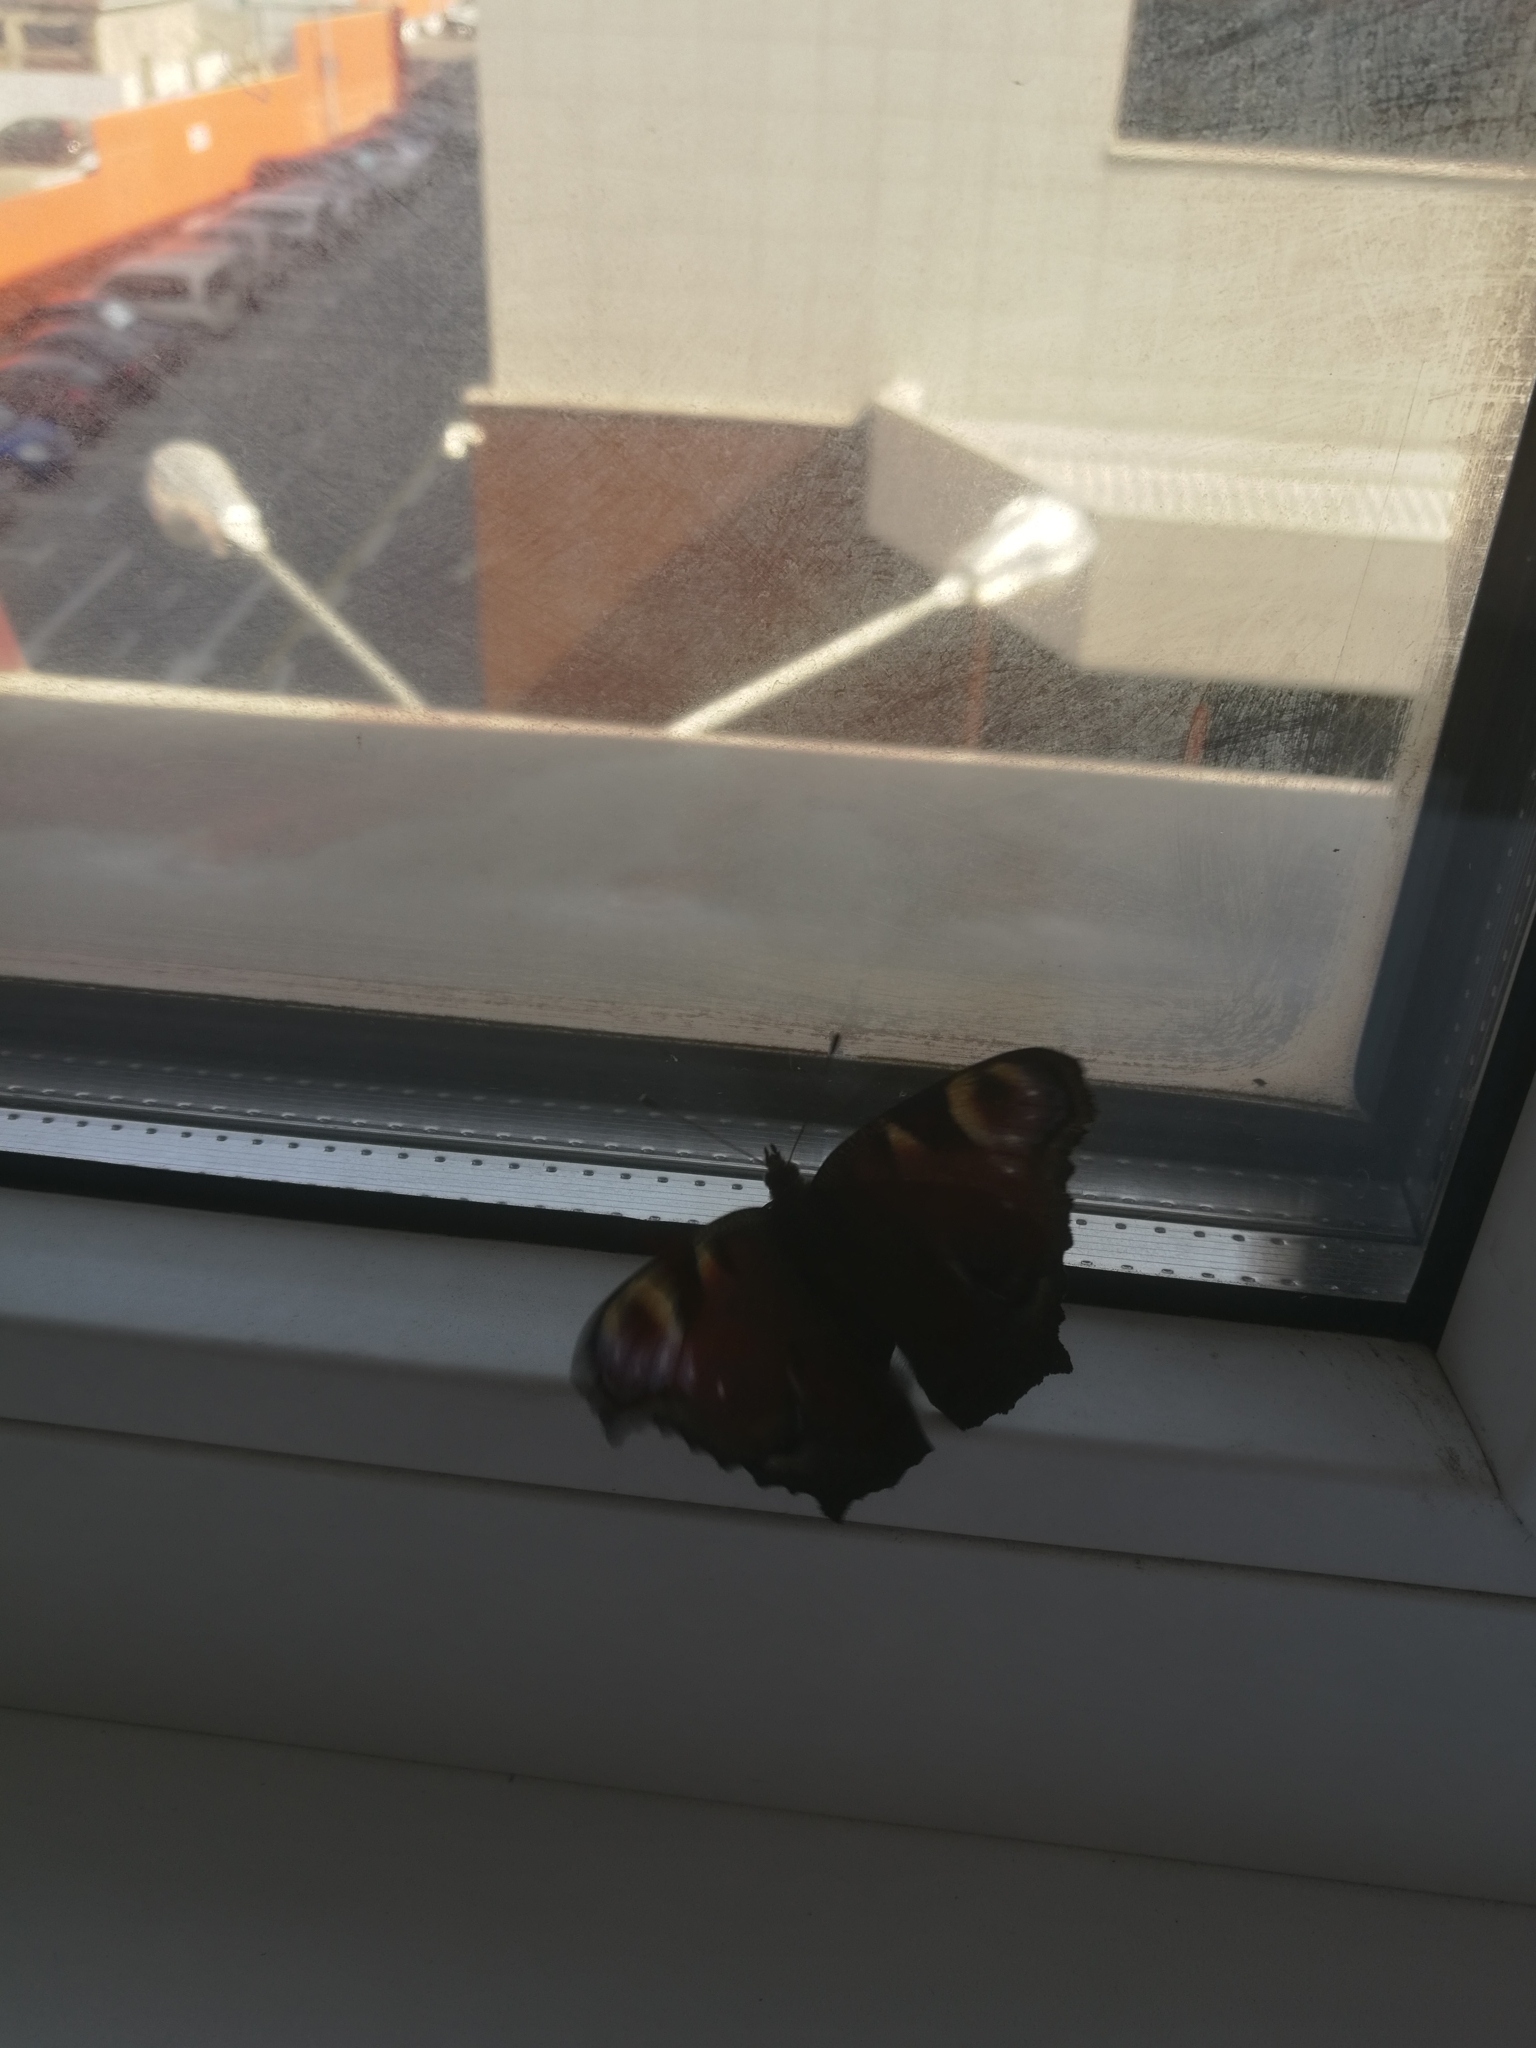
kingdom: Animalia
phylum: Arthropoda
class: Insecta
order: Lepidoptera
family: Nymphalidae
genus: Aglais
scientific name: Aglais io
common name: Peacock
